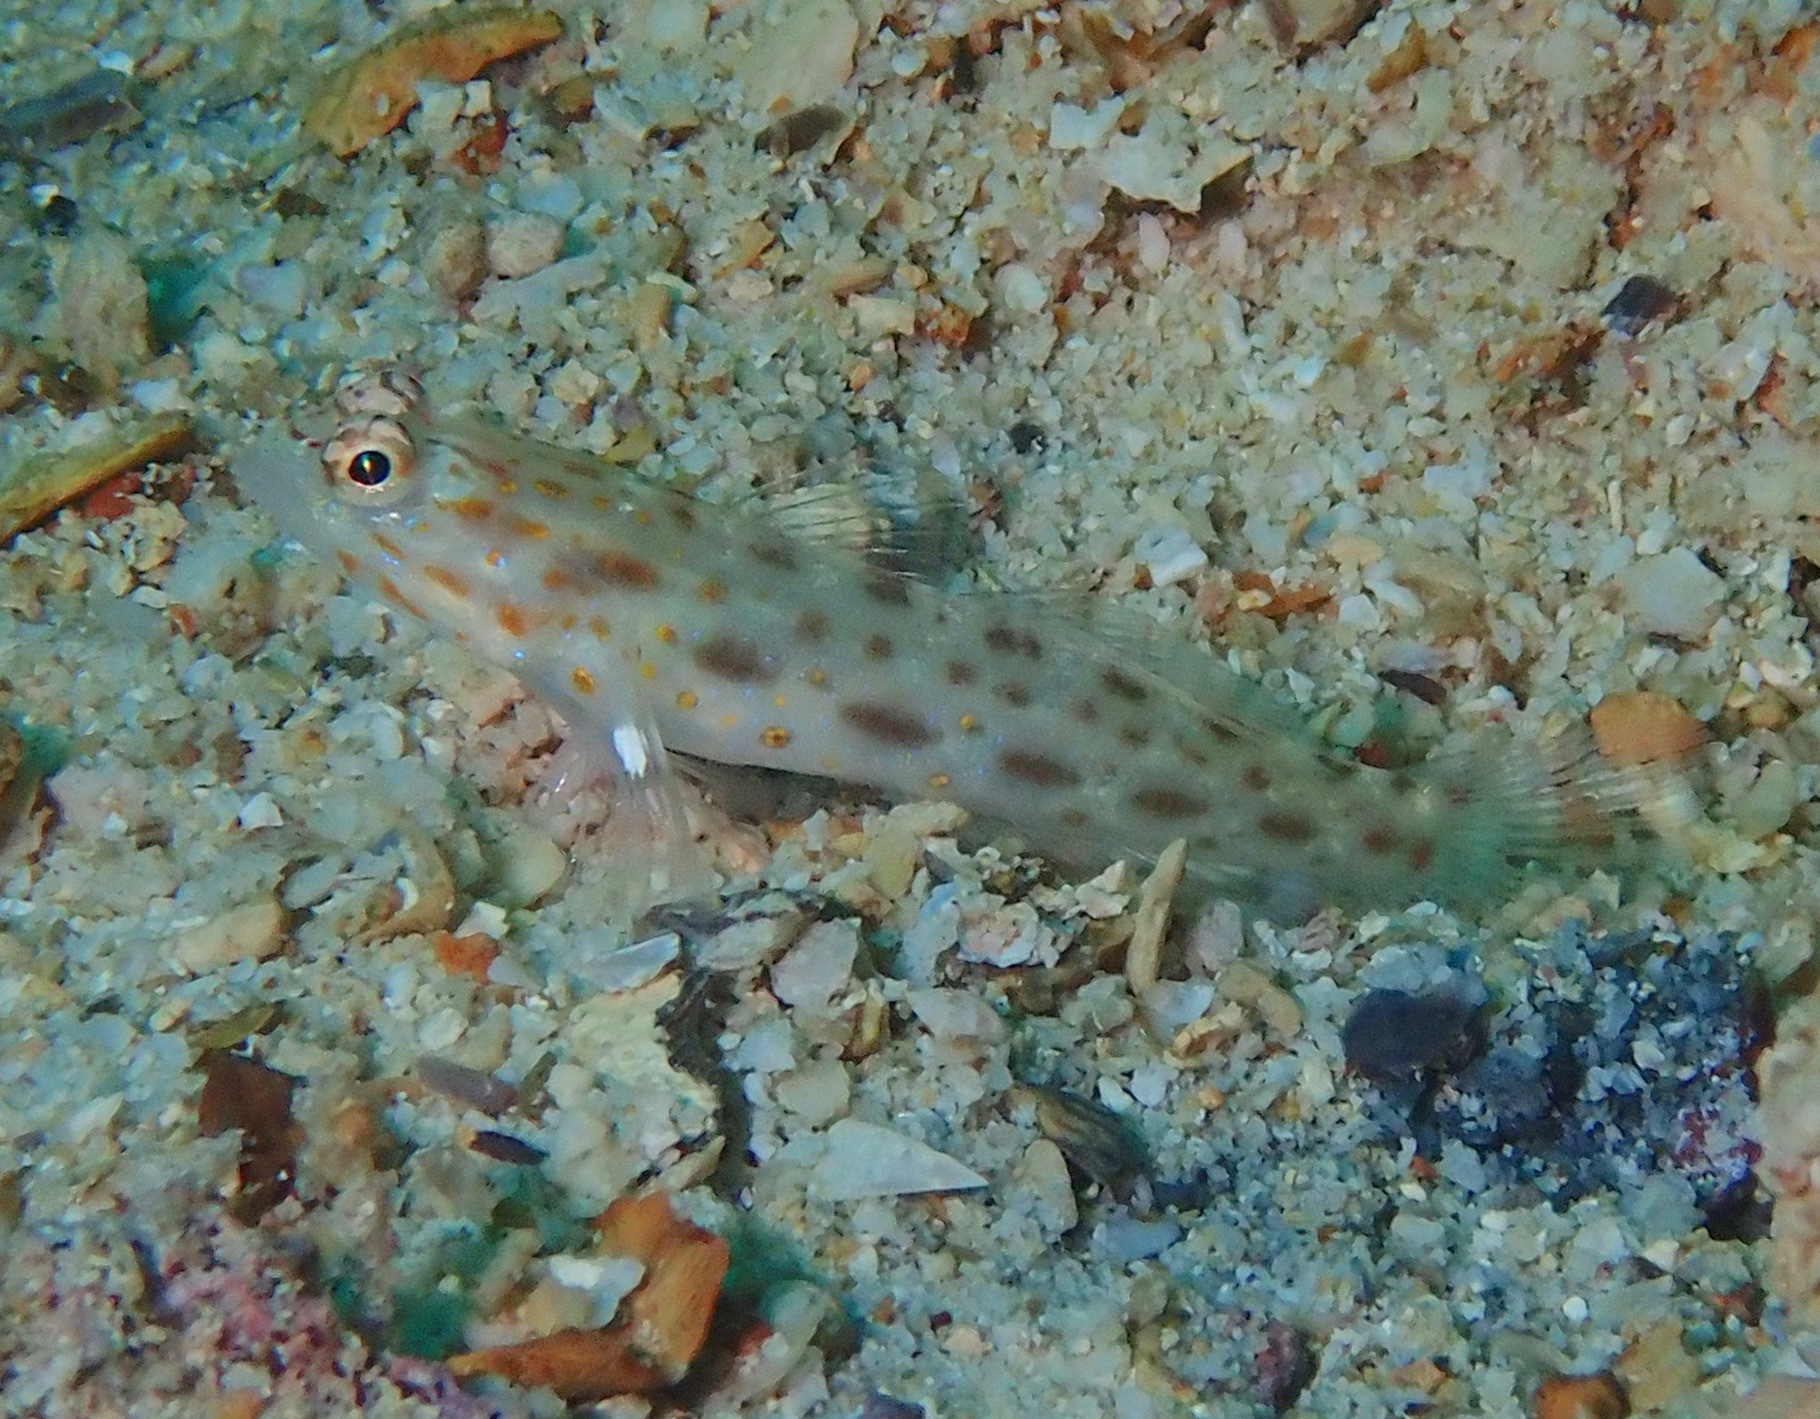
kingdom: Animalia
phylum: Chordata
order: Perciformes
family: Gobiidae
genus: Ctenogobiops
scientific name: Ctenogobiops pomastictus
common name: Spotfin shrimp goby
